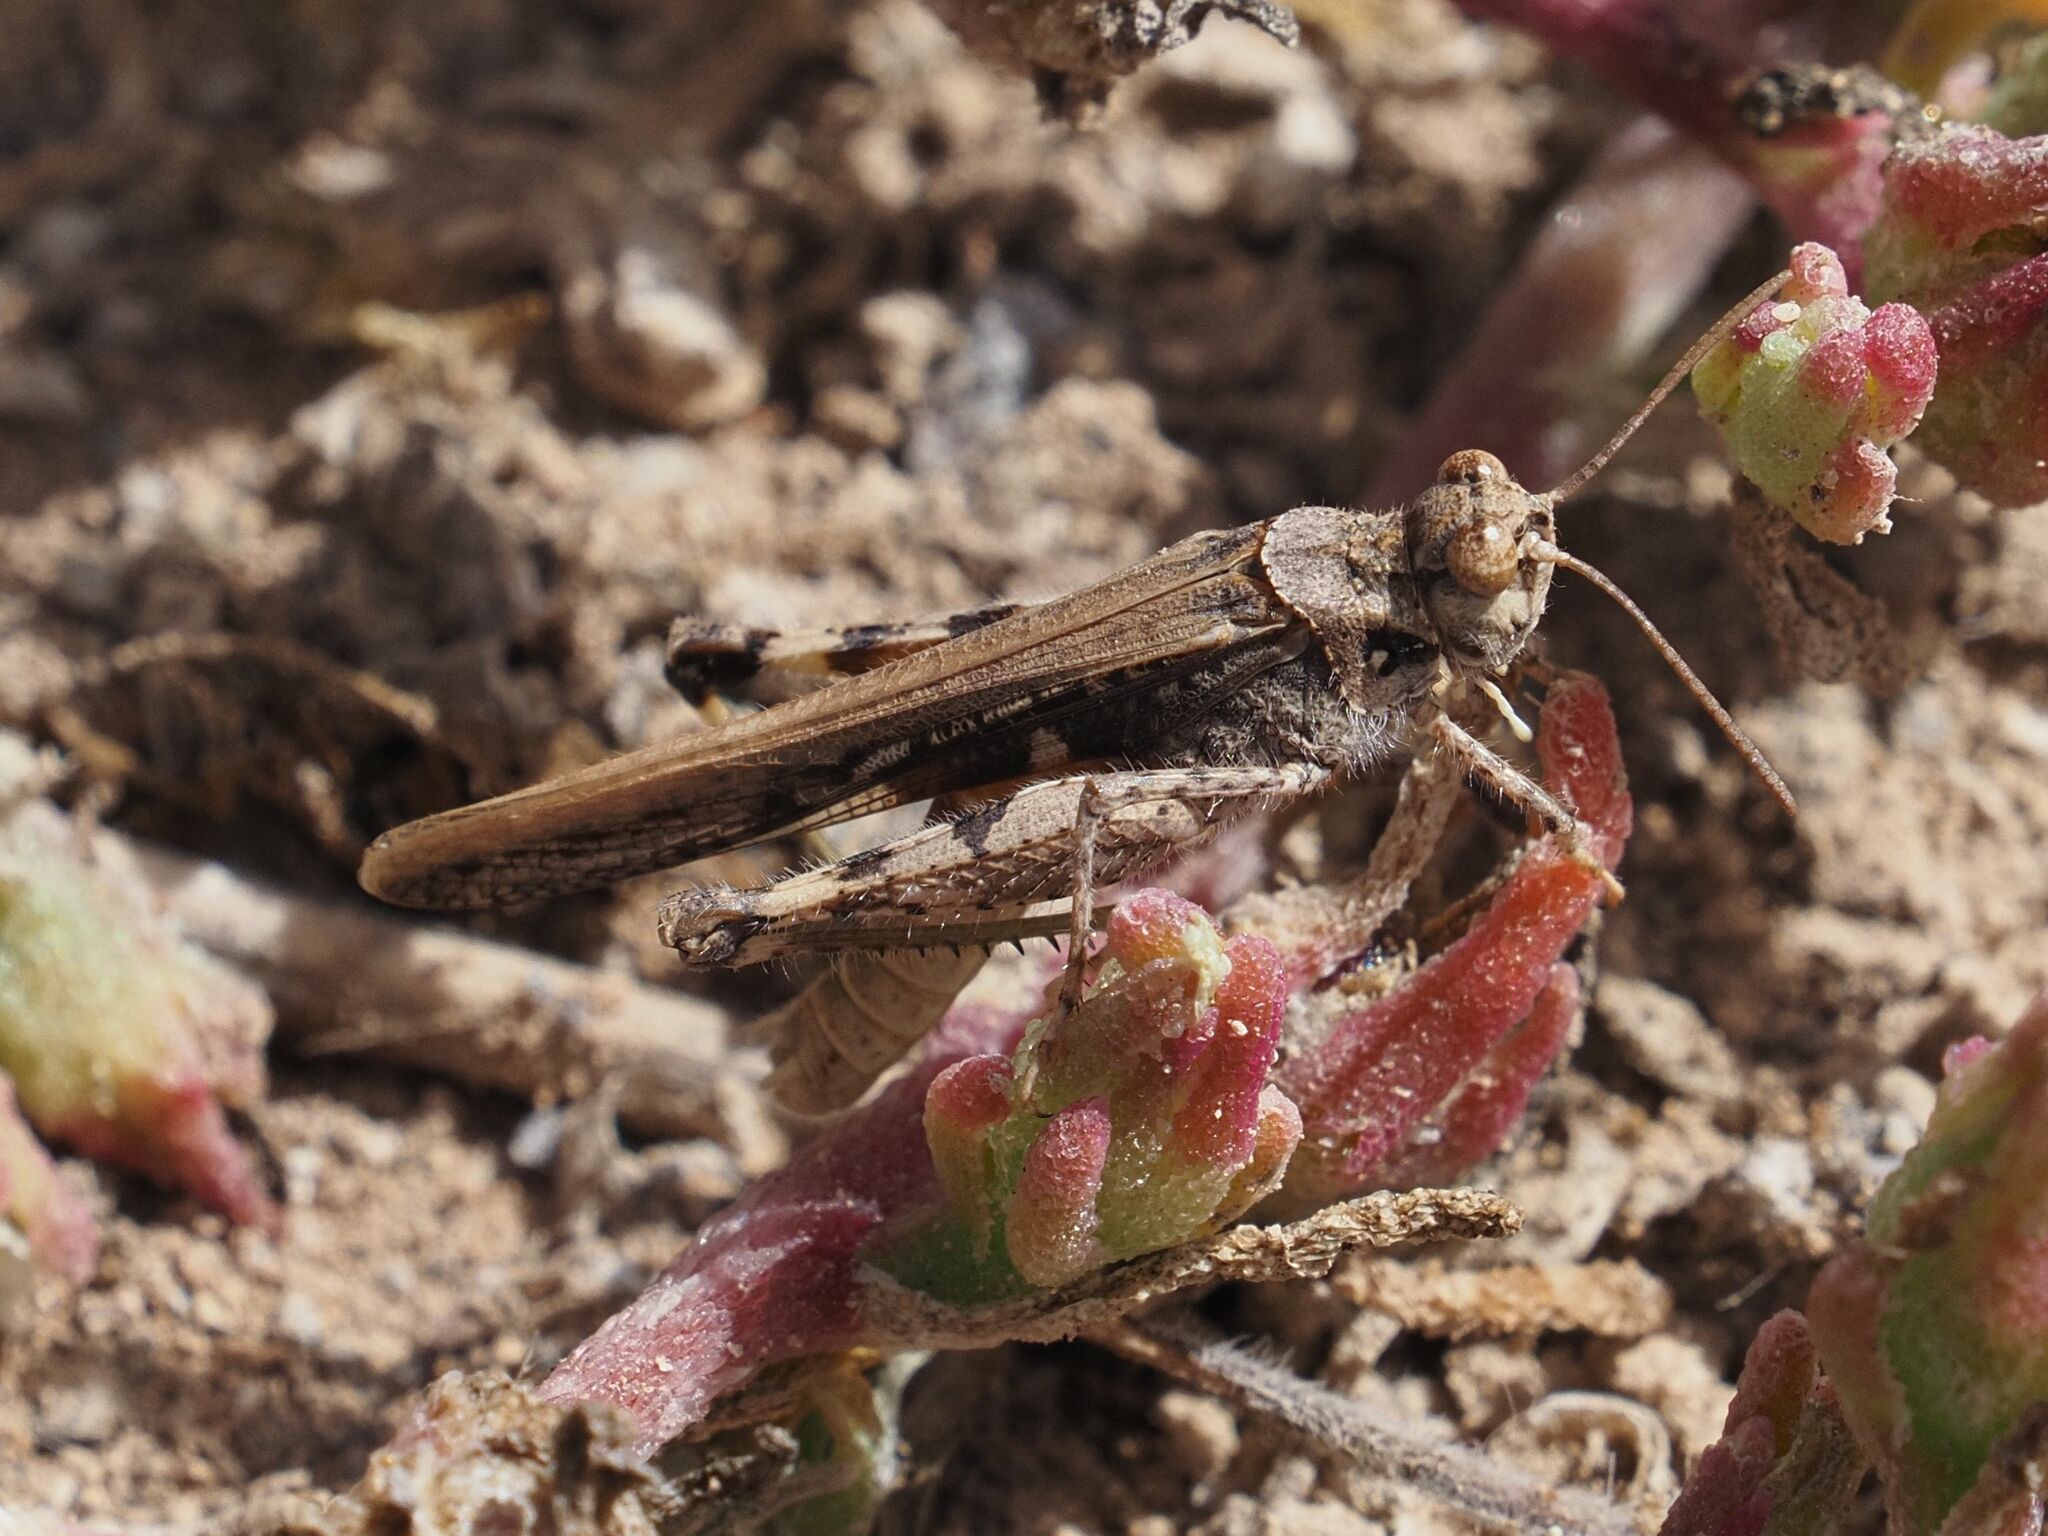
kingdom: Animalia
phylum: Arthropoda
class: Insecta
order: Orthoptera
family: Acrididae
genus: Acrotylus
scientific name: Acrotylus insubricus
